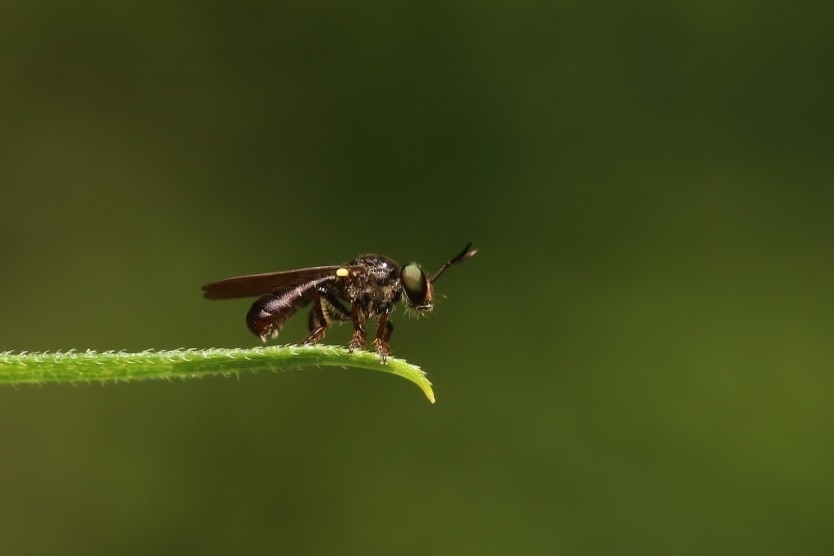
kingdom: Animalia
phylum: Arthropoda
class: Insecta
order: Diptera
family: Asilidae
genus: Cerotainia
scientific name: Cerotainia macrocera
